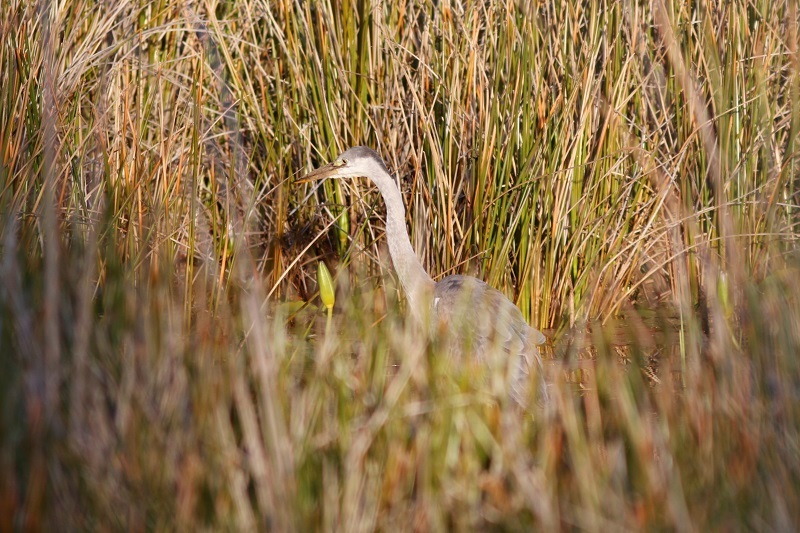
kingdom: Animalia
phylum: Chordata
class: Aves
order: Pelecaniformes
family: Ardeidae
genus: Ardea
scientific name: Ardea cinerea
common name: Grey heron
